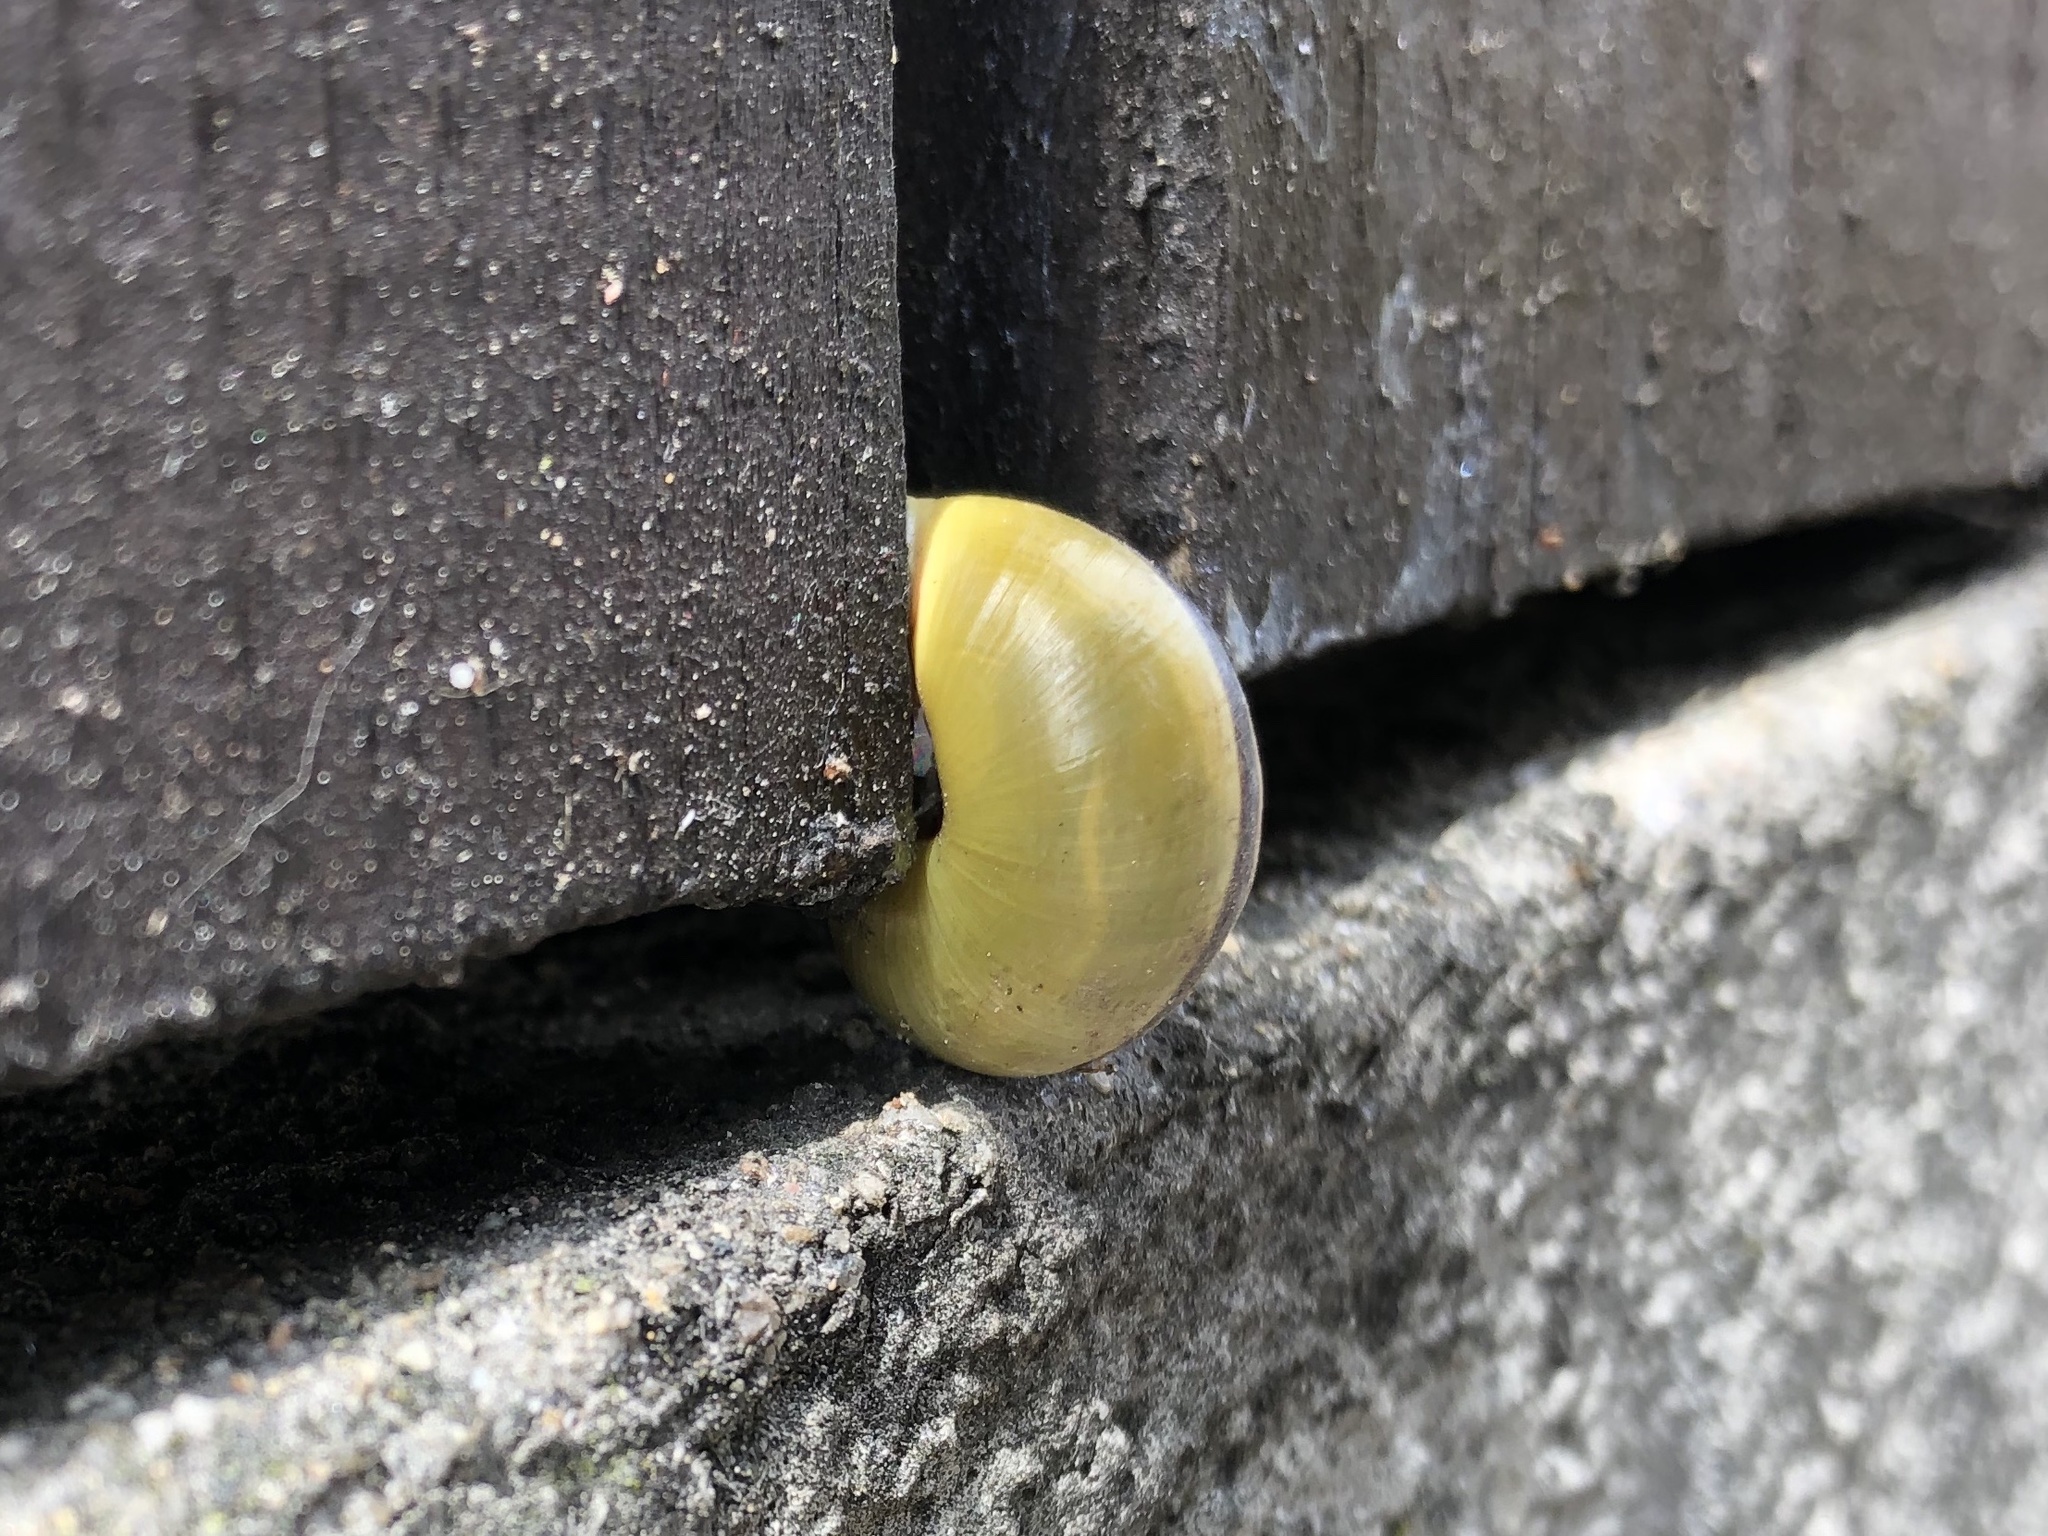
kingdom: Animalia
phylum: Mollusca
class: Gastropoda
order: Stylommatophora
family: Helicidae
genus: Cepaea
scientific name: Cepaea nemoralis
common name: Grovesnail
